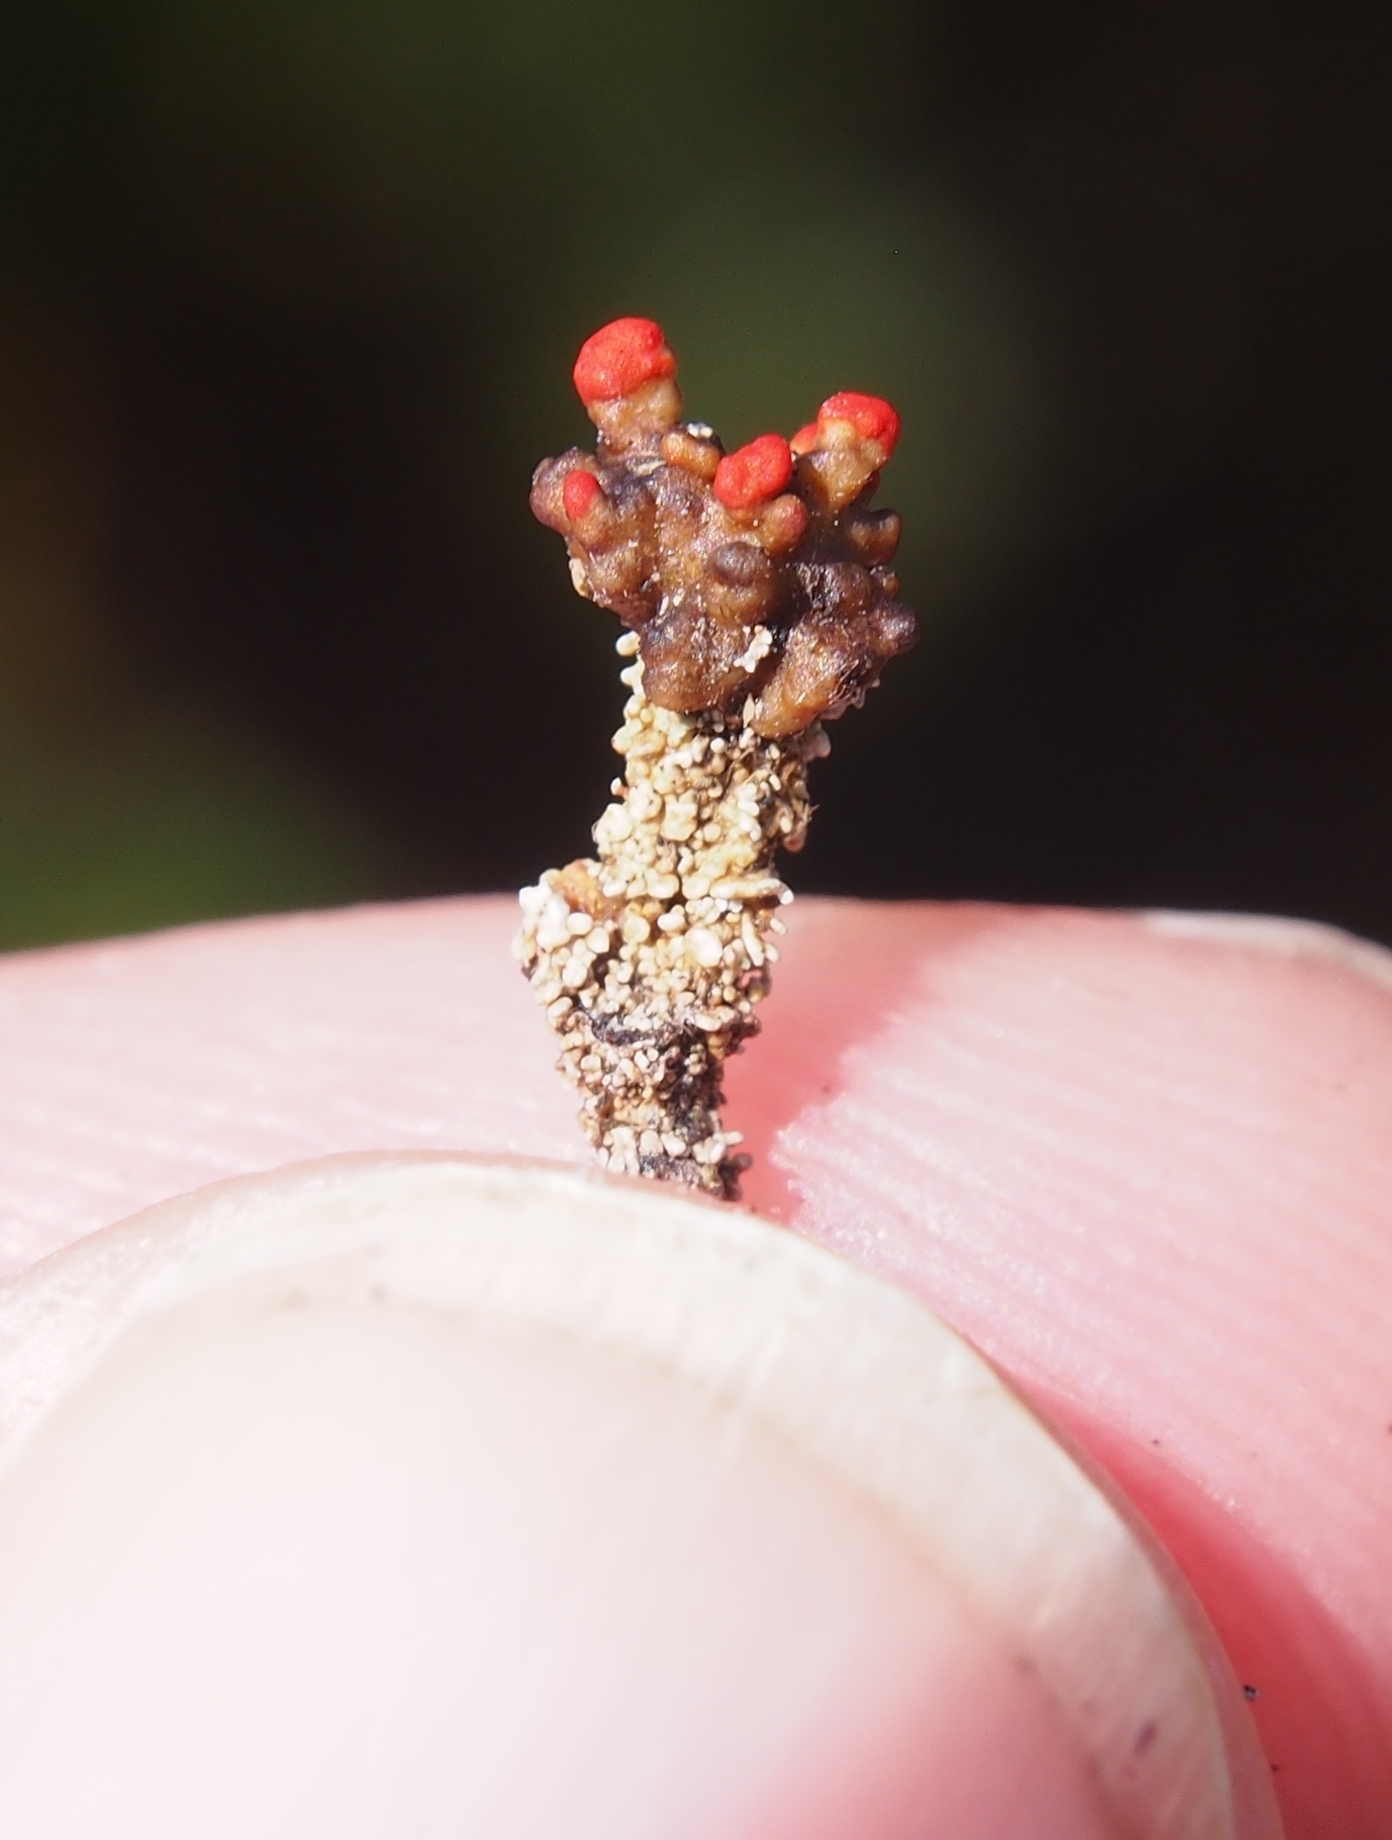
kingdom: Fungi
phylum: Ascomycota
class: Lecanoromycetes
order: Lecanorales
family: Cladoniaceae
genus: Cladonia
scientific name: Cladonia didyma
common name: Southern soldiers
